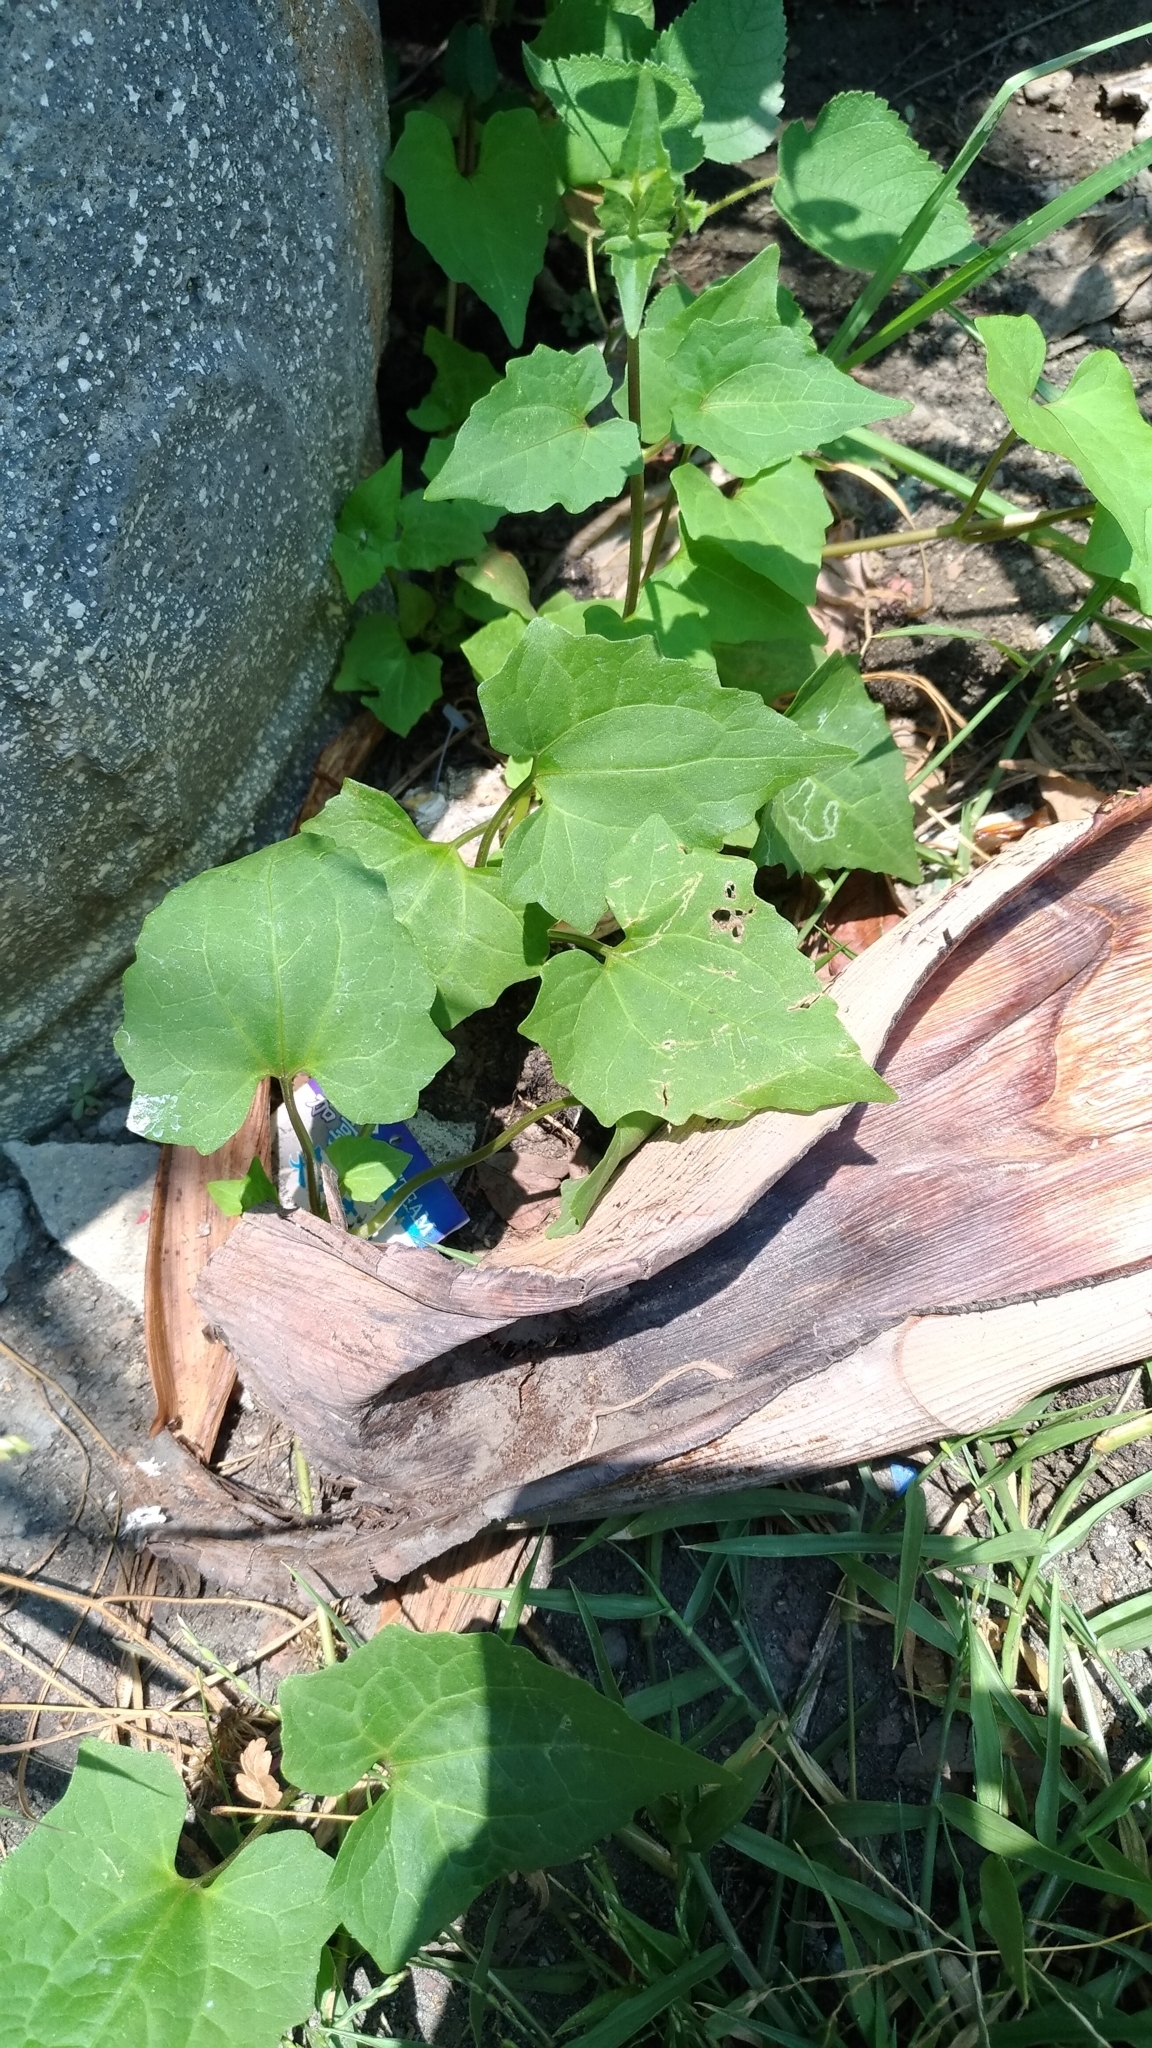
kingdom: Plantae
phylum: Tracheophyta
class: Magnoliopsida
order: Asterales
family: Asteraceae
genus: Mikania
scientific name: Mikania micrantha
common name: Mile-a-minute
